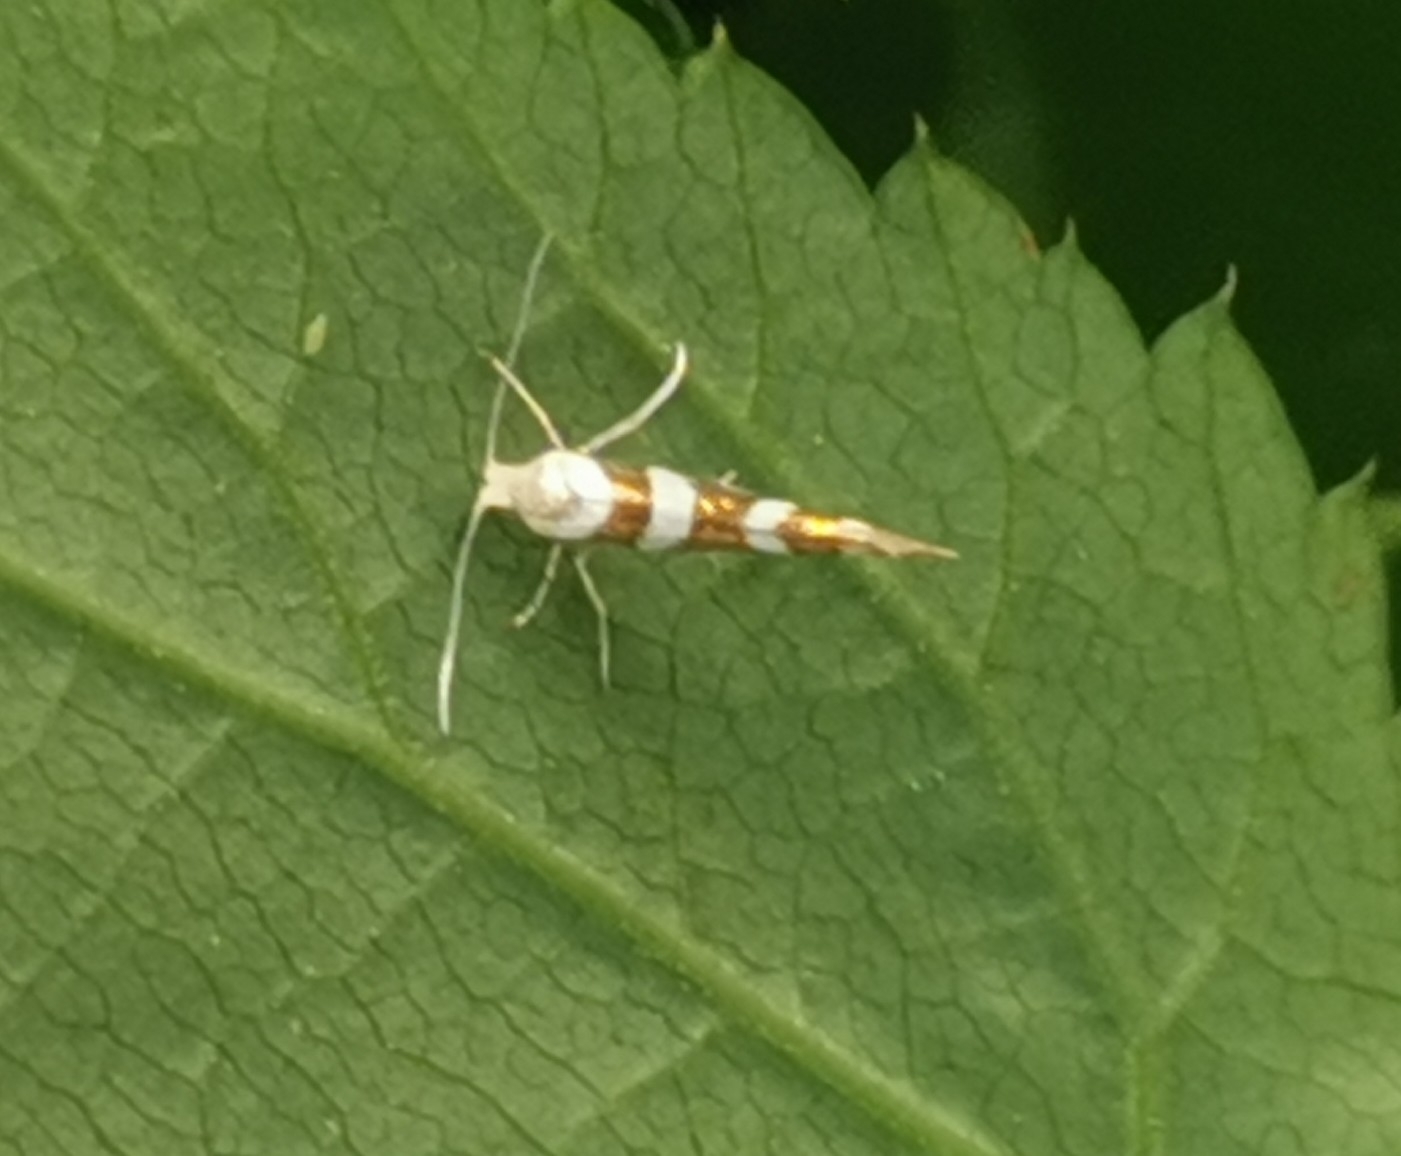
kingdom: Animalia
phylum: Arthropoda
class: Insecta
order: Lepidoptera
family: Argyresthiidae
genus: Argyresthia
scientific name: Argyresthia goedartella
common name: Golden argent
